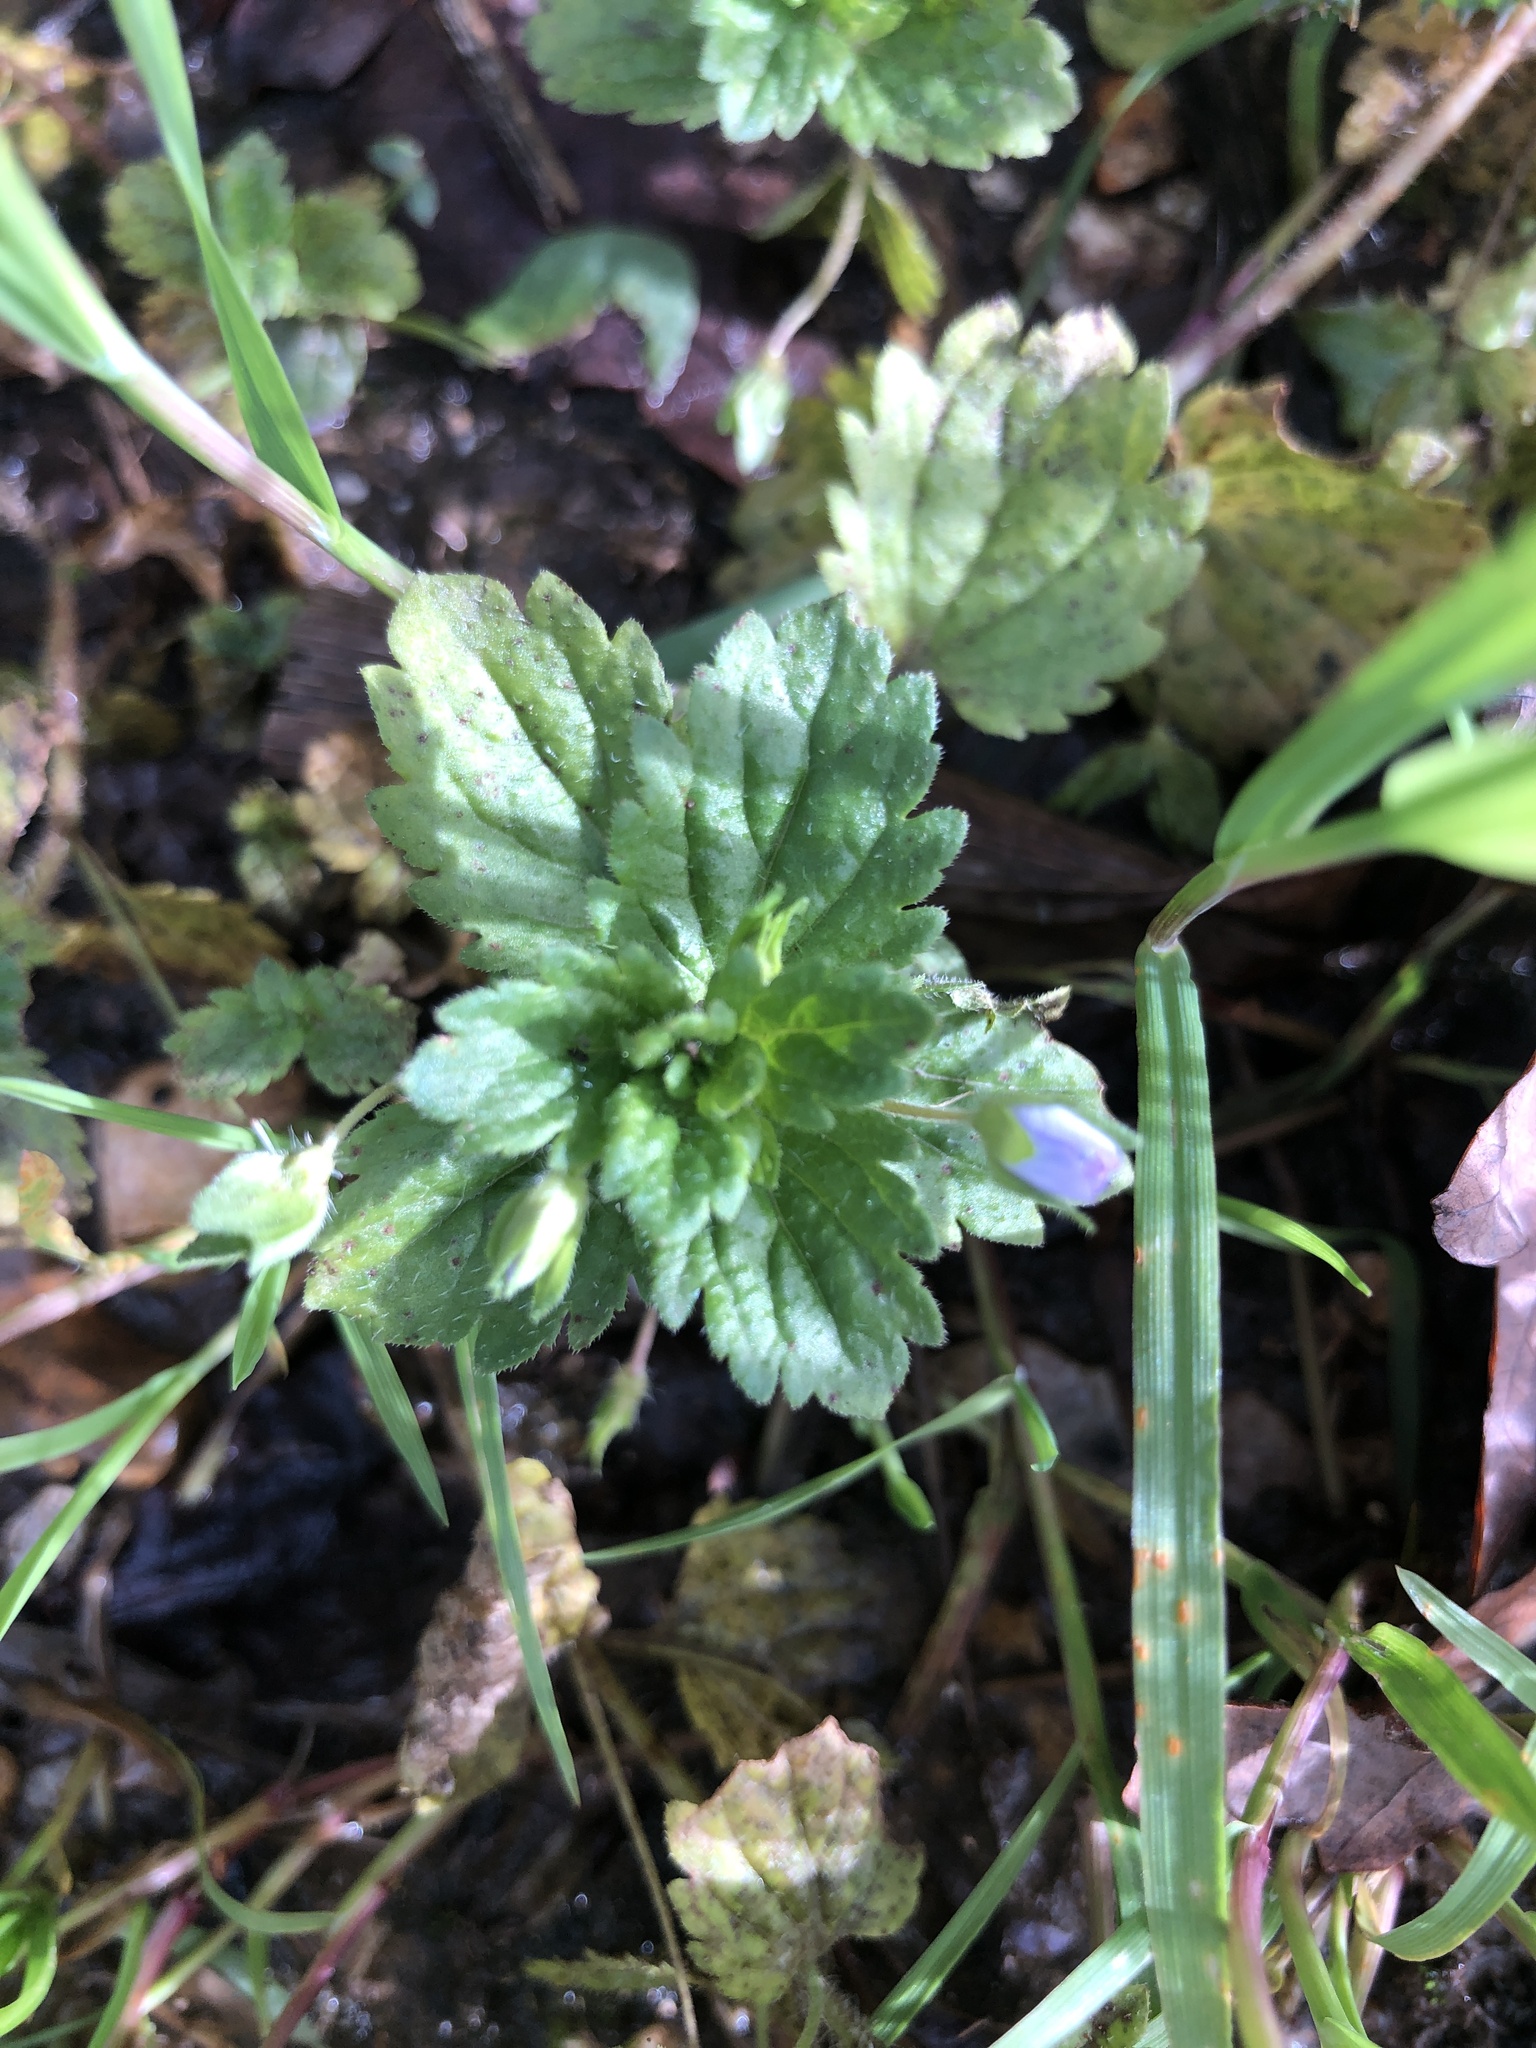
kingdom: Plantae
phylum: Tracheophyta
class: Magnoliopsida
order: Lamiales
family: Plantaginaceae
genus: Veronica
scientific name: Veronica persica
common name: Common field-speedwell
